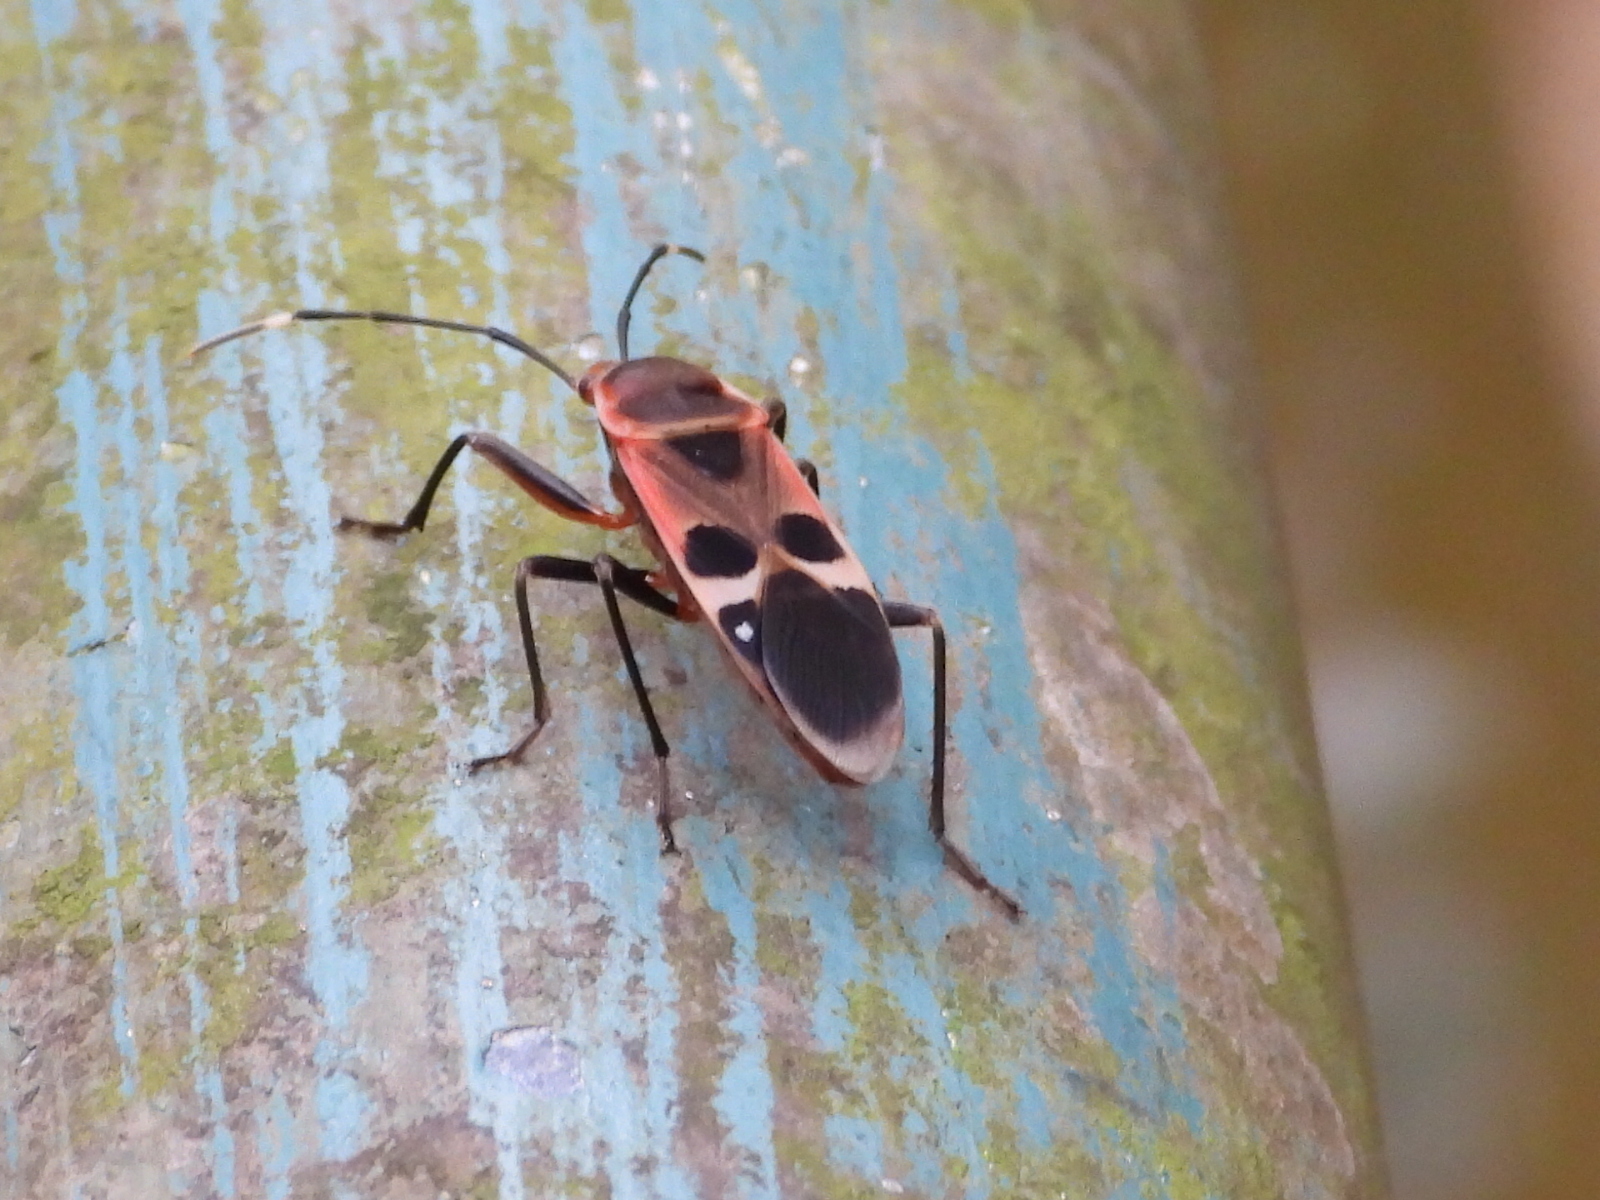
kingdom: Animalia
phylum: Arthropoda
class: Insecta
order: Hemiptera
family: Largidae
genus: Physopelta
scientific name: Physopelta gutta
